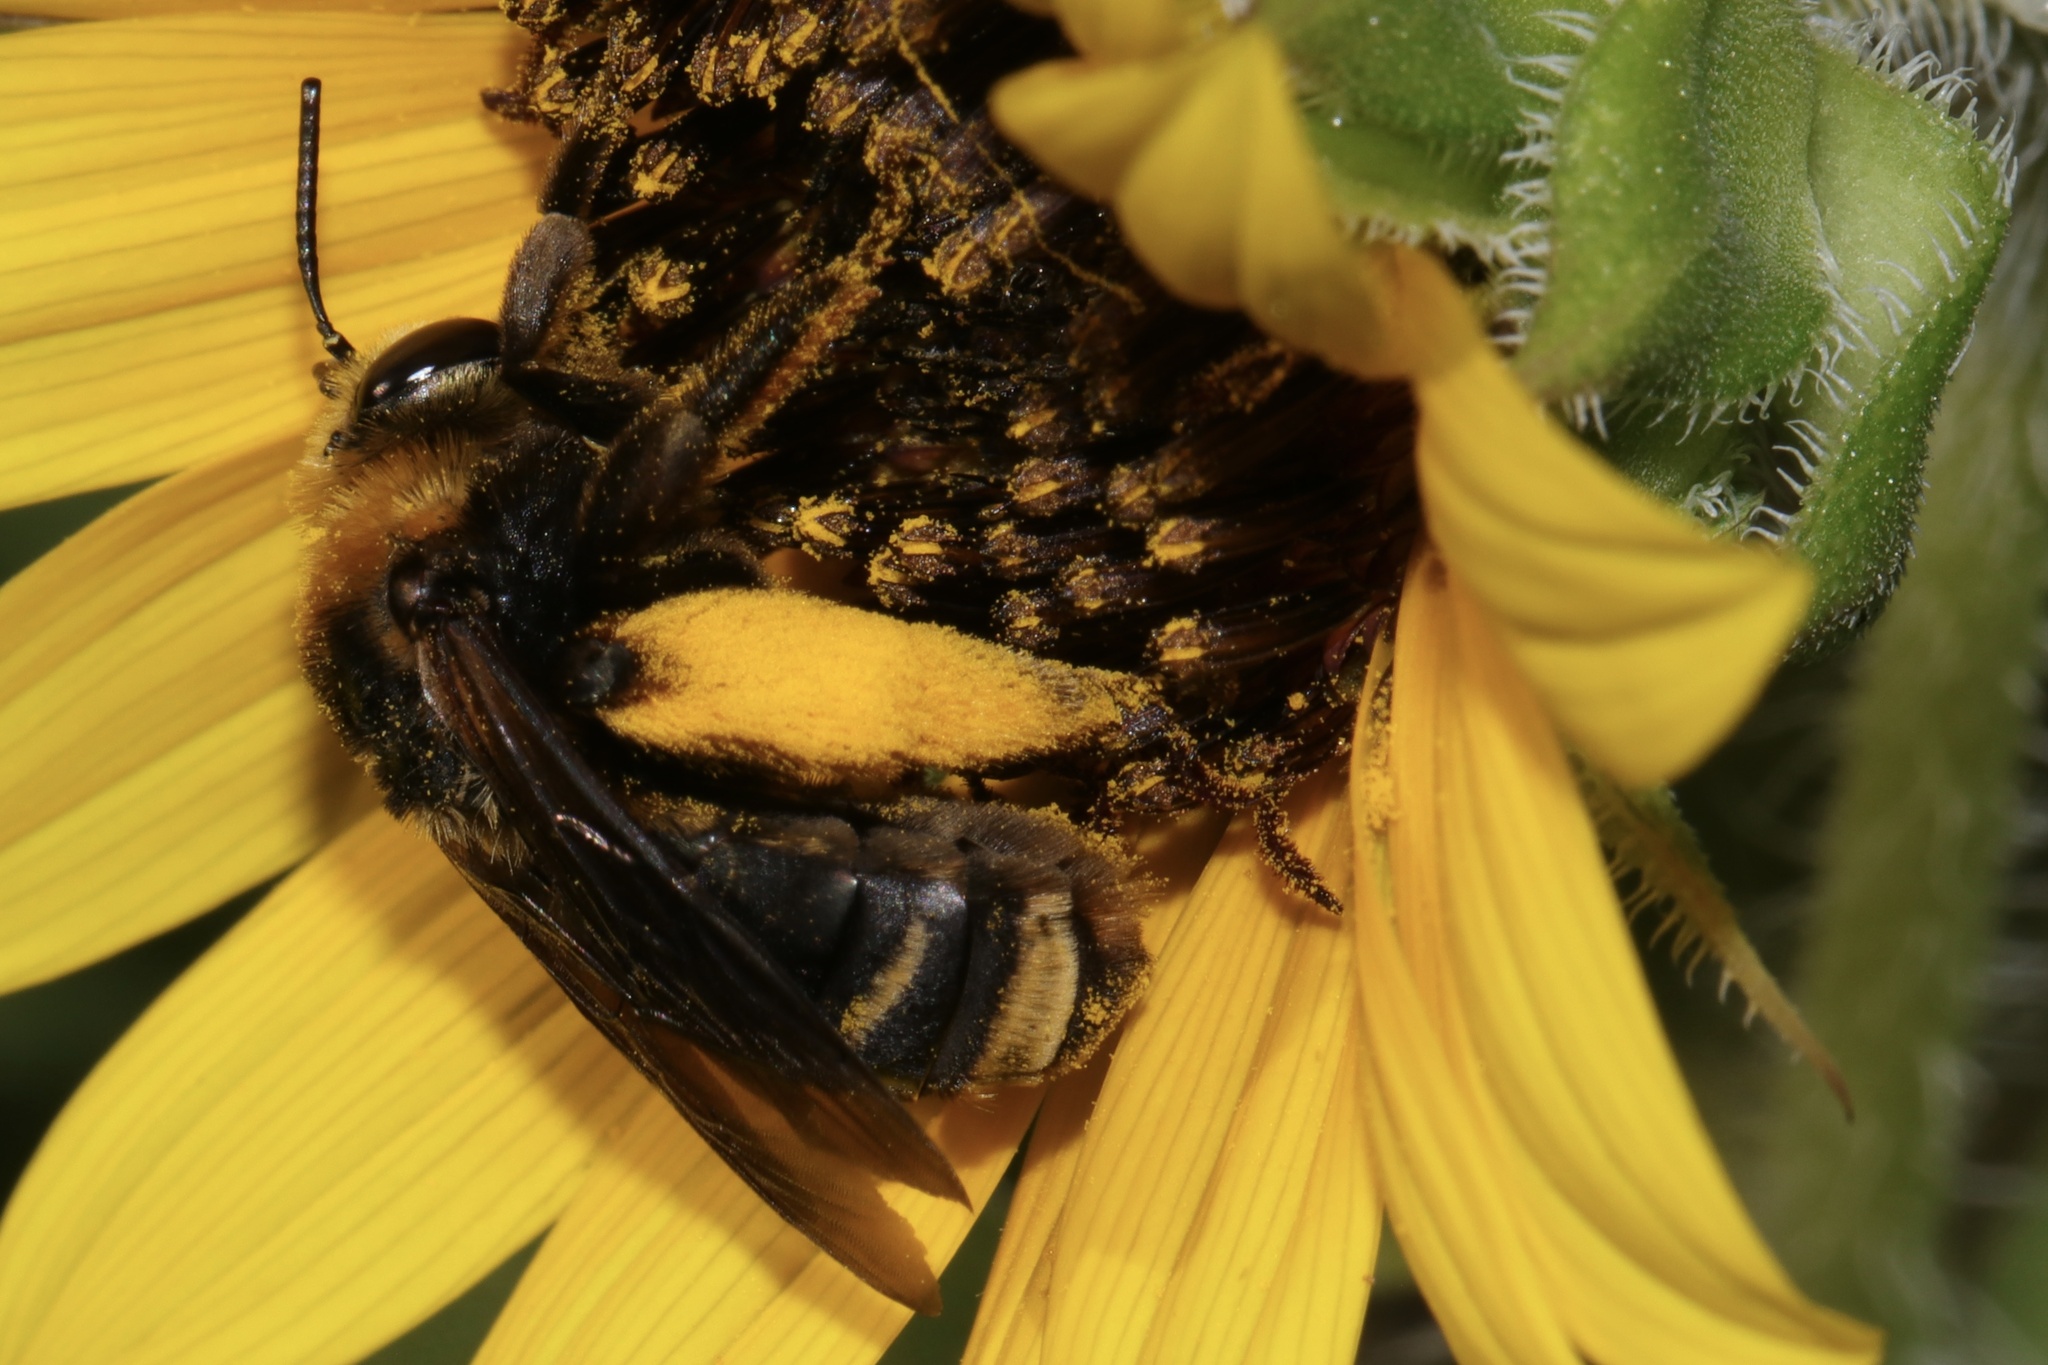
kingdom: Animalia
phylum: Arthropoda
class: Insecta
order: Hymenoptera
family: Apidae
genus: Svastra
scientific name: Svastra obliqua
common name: Oblique longhorn
